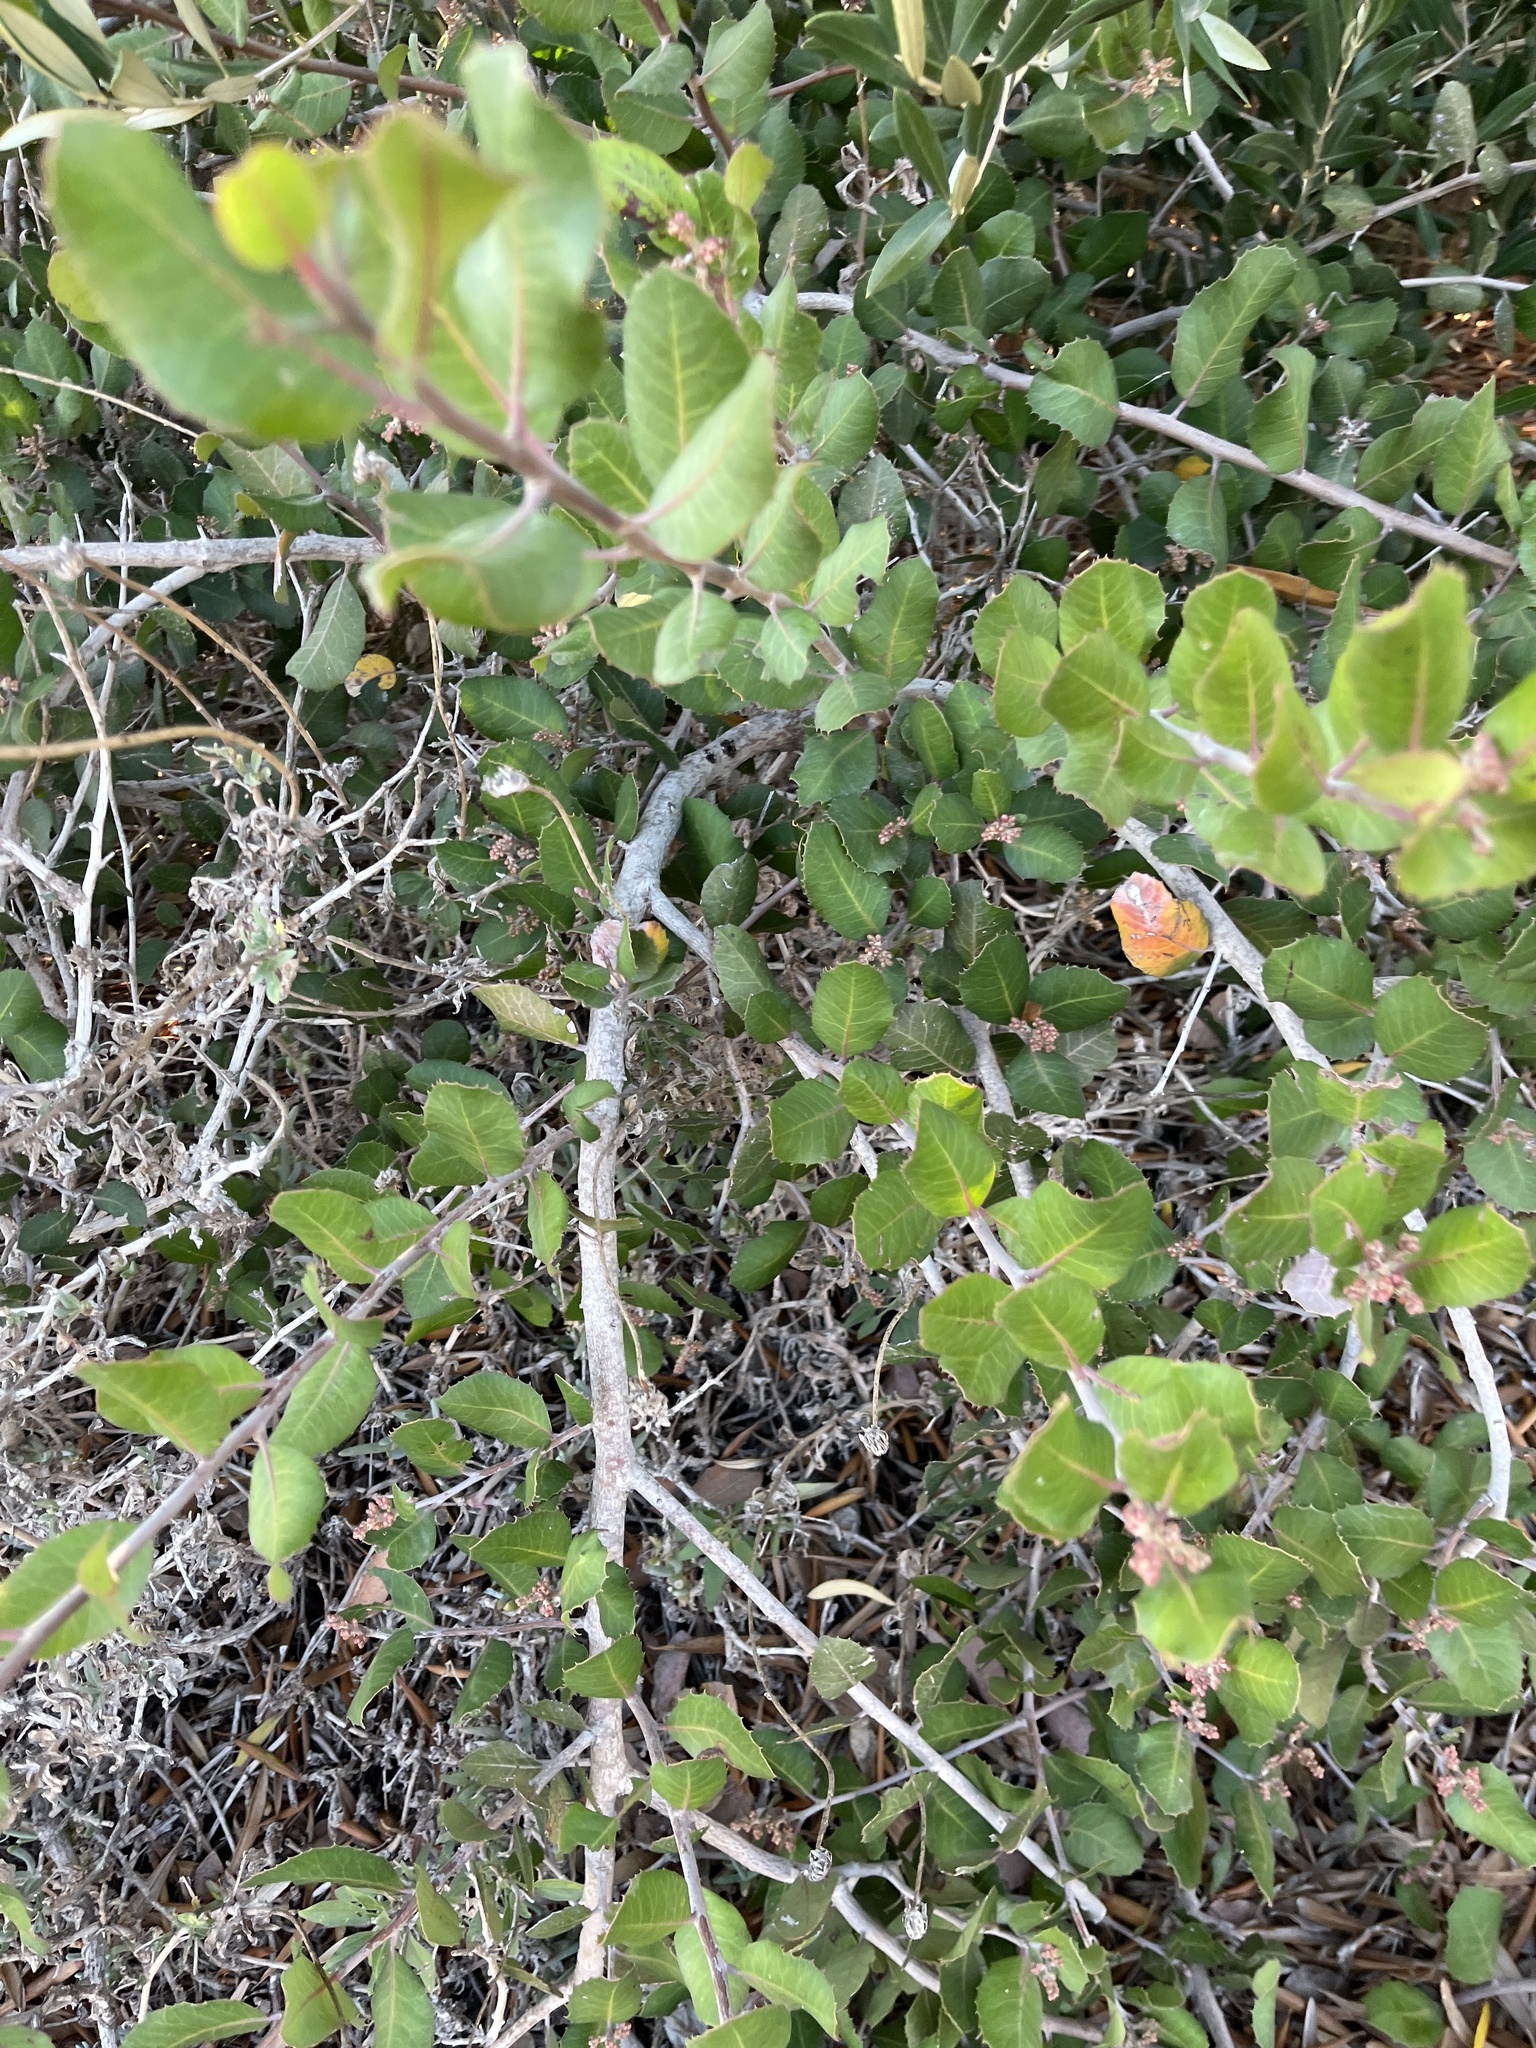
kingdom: Plantae
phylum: Tracheophyta
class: Magnoliopsida
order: Sapindales
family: Anacardiaceae
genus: Rhus
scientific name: Rhus integrifolia
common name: Lemonade sumac
